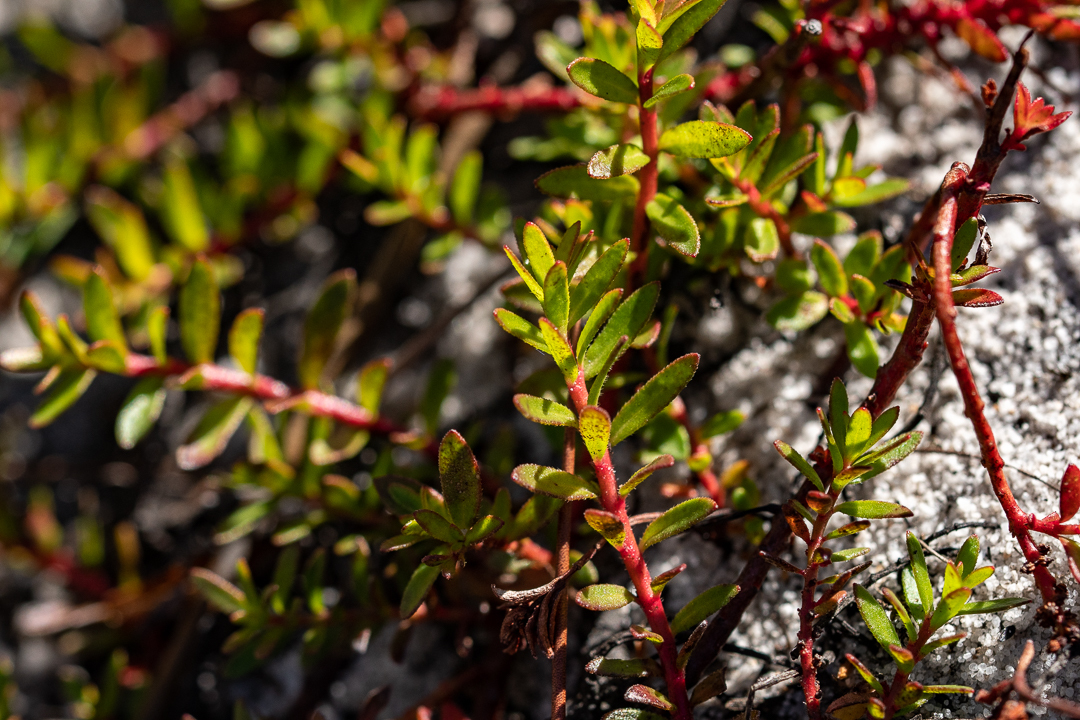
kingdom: Plantae
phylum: Tracheophyta
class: Magnoliopsida
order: Saxifragales
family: Haloragaceae
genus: Laurembergia
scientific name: Laurembergia repens
